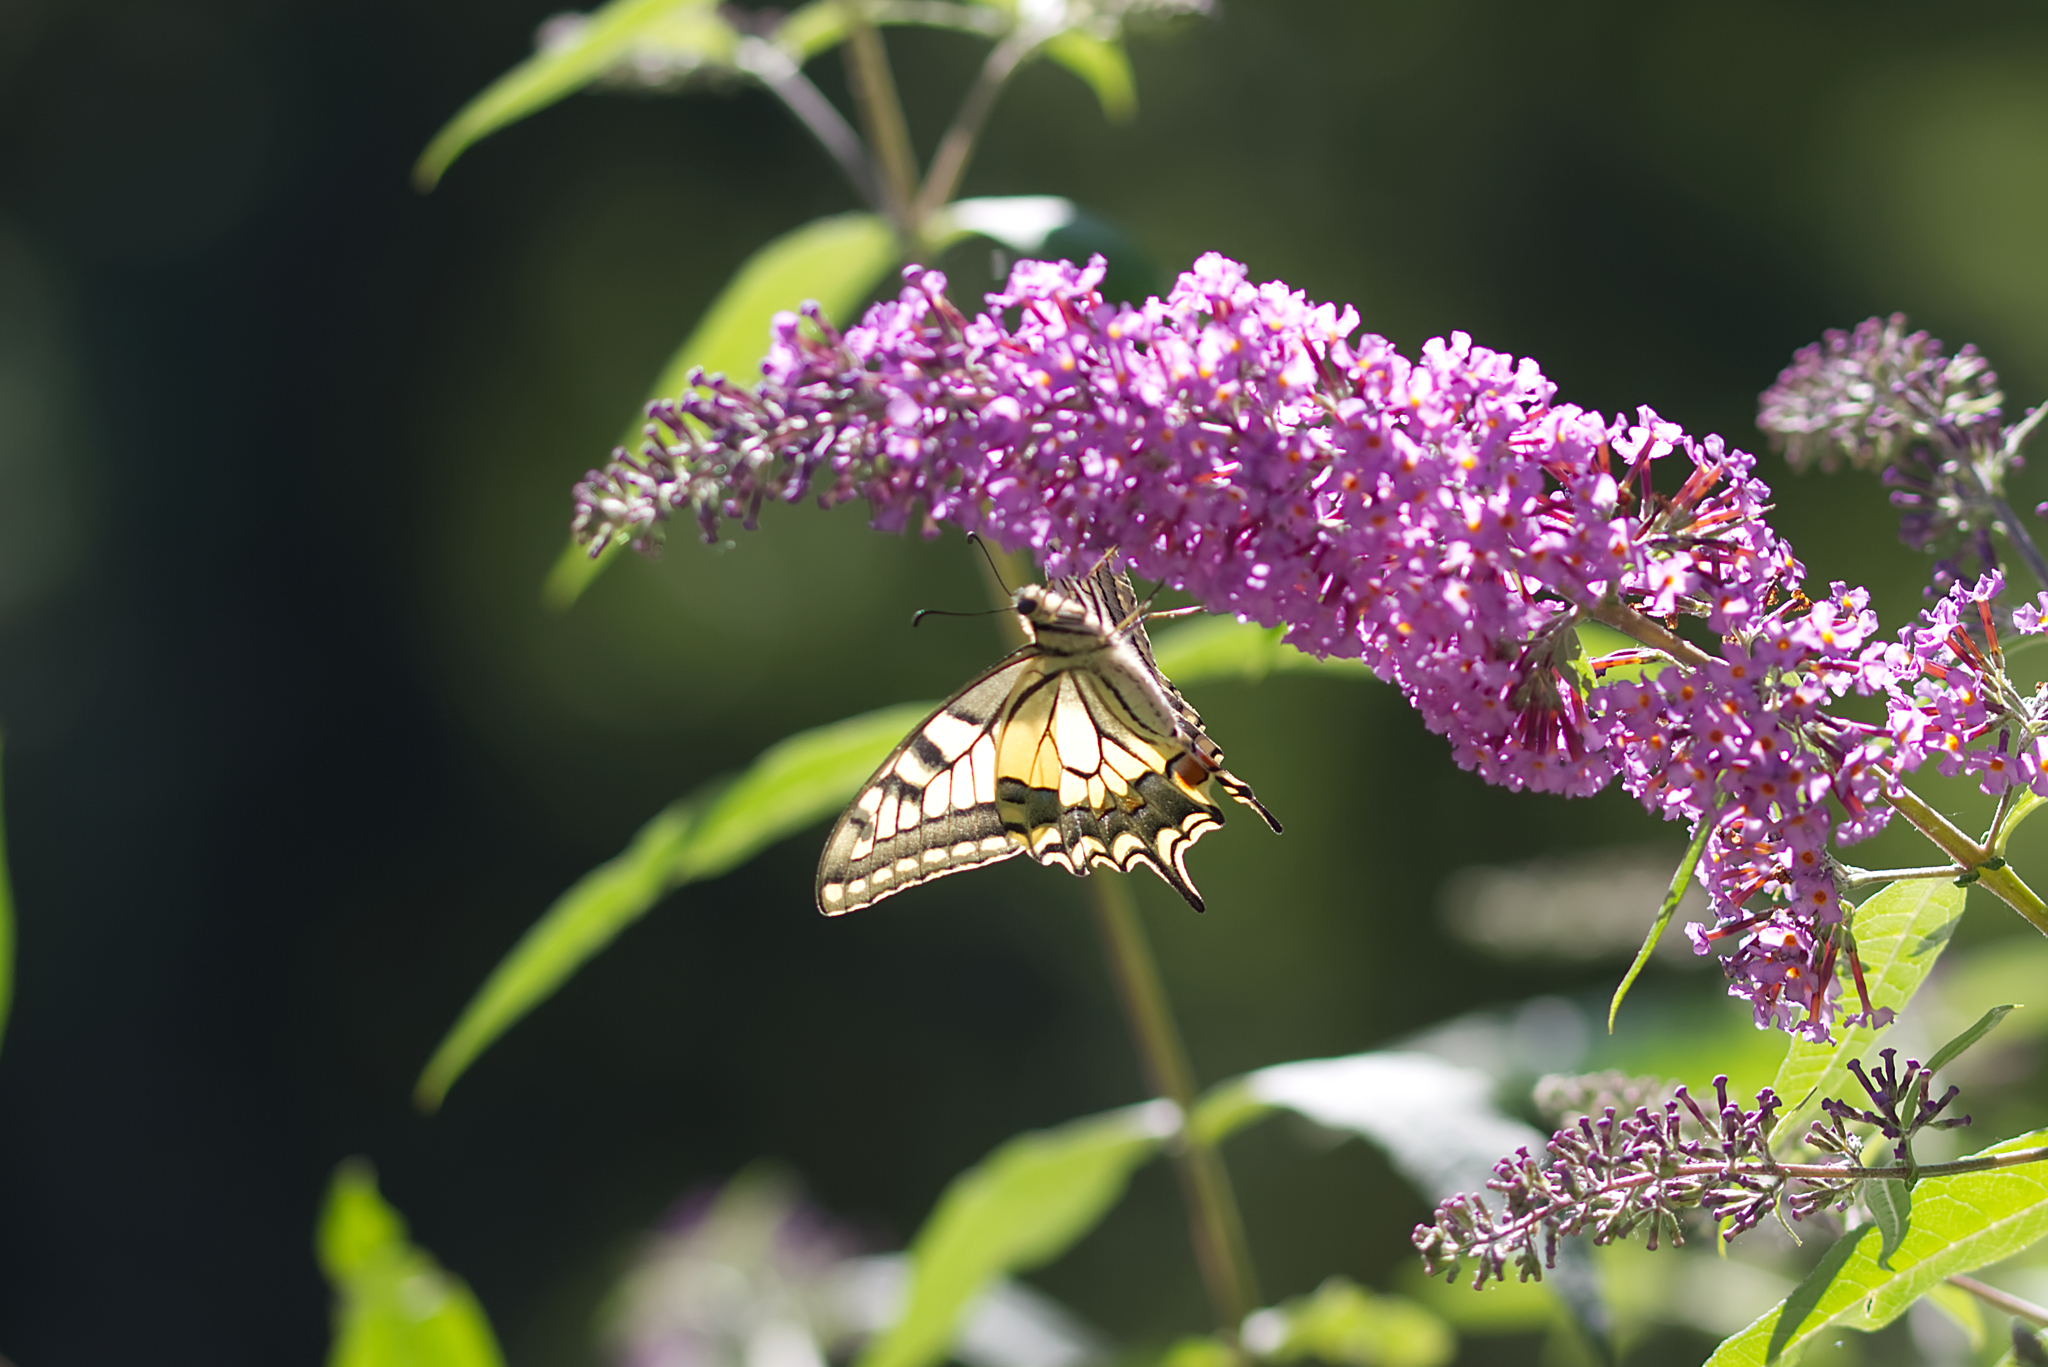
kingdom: Animalia
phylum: Arthropoda
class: Insecta
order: Lepidoptera
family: Papilionidae
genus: Papilio
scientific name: Papilio machaon
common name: Swallowtail
